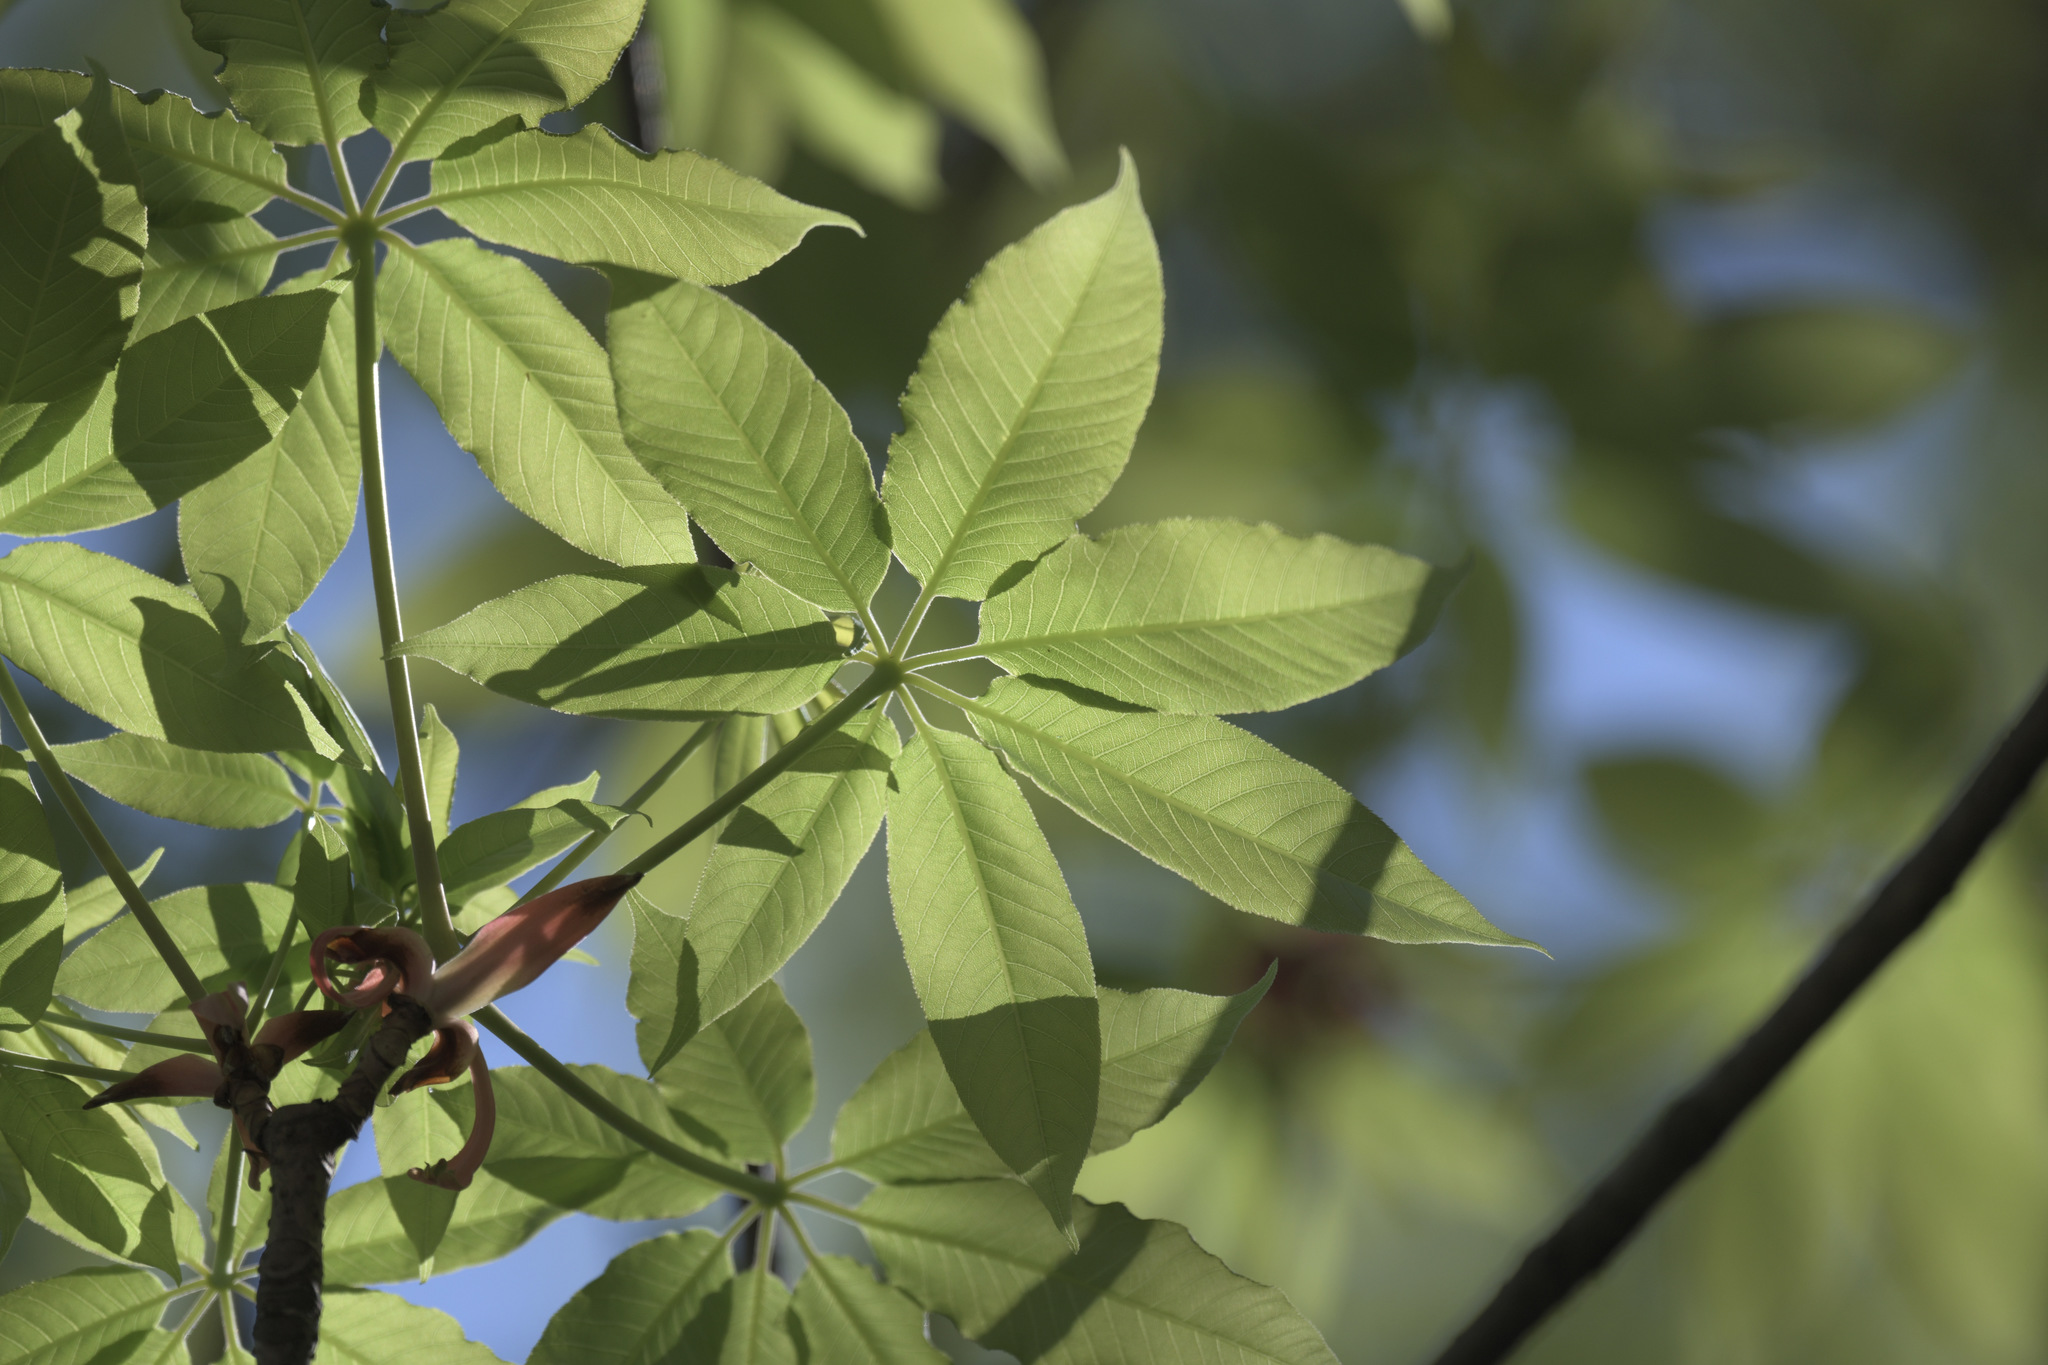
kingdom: Plantae
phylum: Tracheophyta
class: Magnoliopsida
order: Sapindales
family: Sapindaceae
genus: Aesculus
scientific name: Aesculus chinensis
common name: Chinese horse-chestnut
